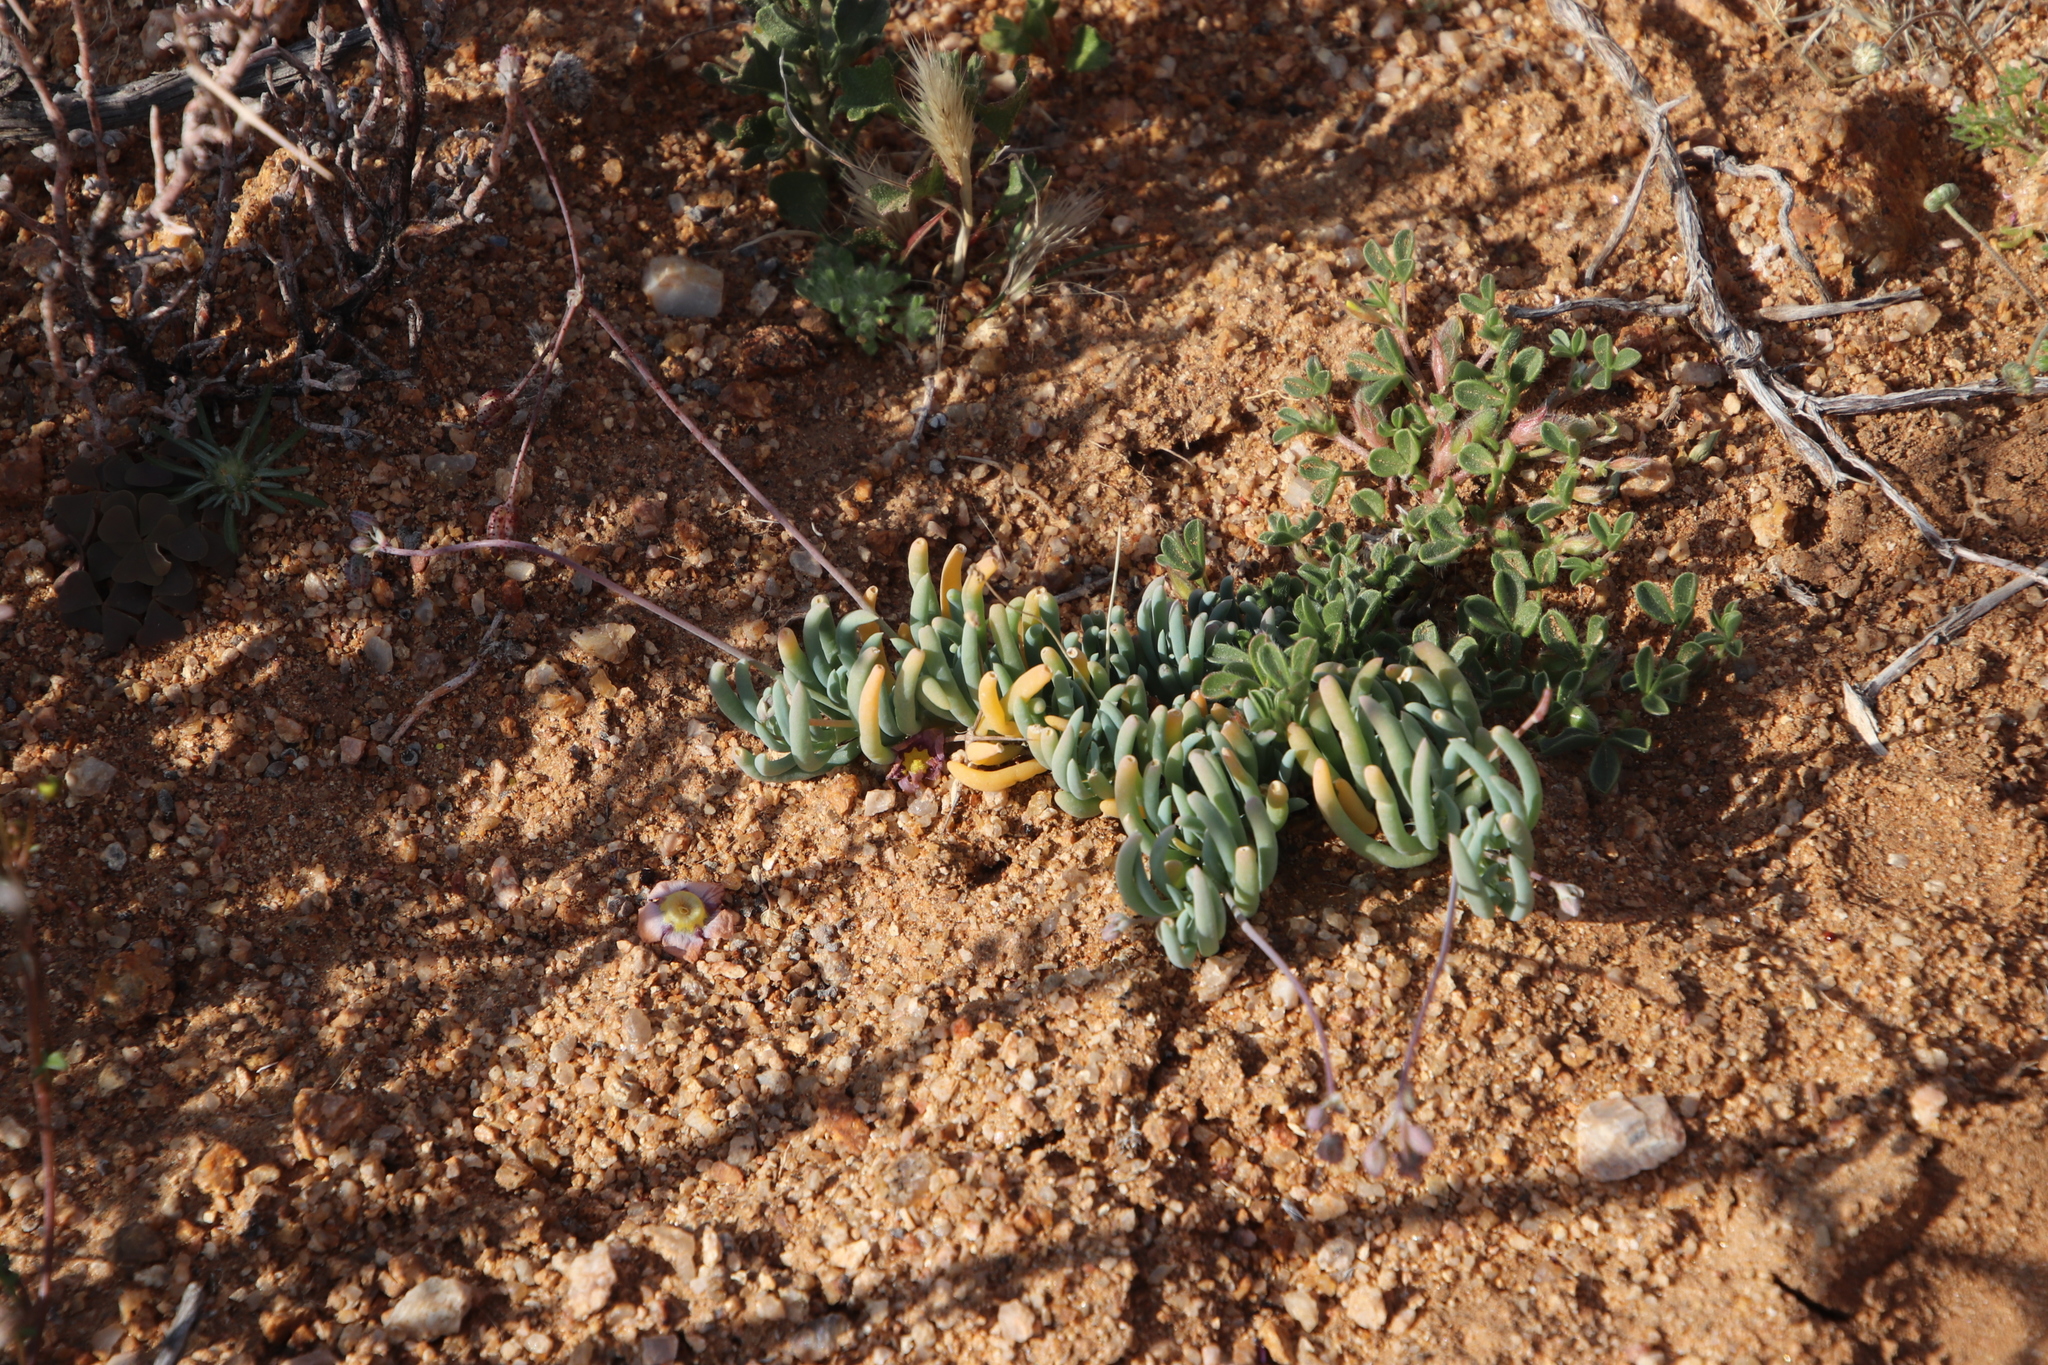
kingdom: Plantae
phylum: Tracheophyta
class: Magnoliopsida
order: Caryophyllales
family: Kewaceae
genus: Kewa
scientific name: Kewa salsoloides
